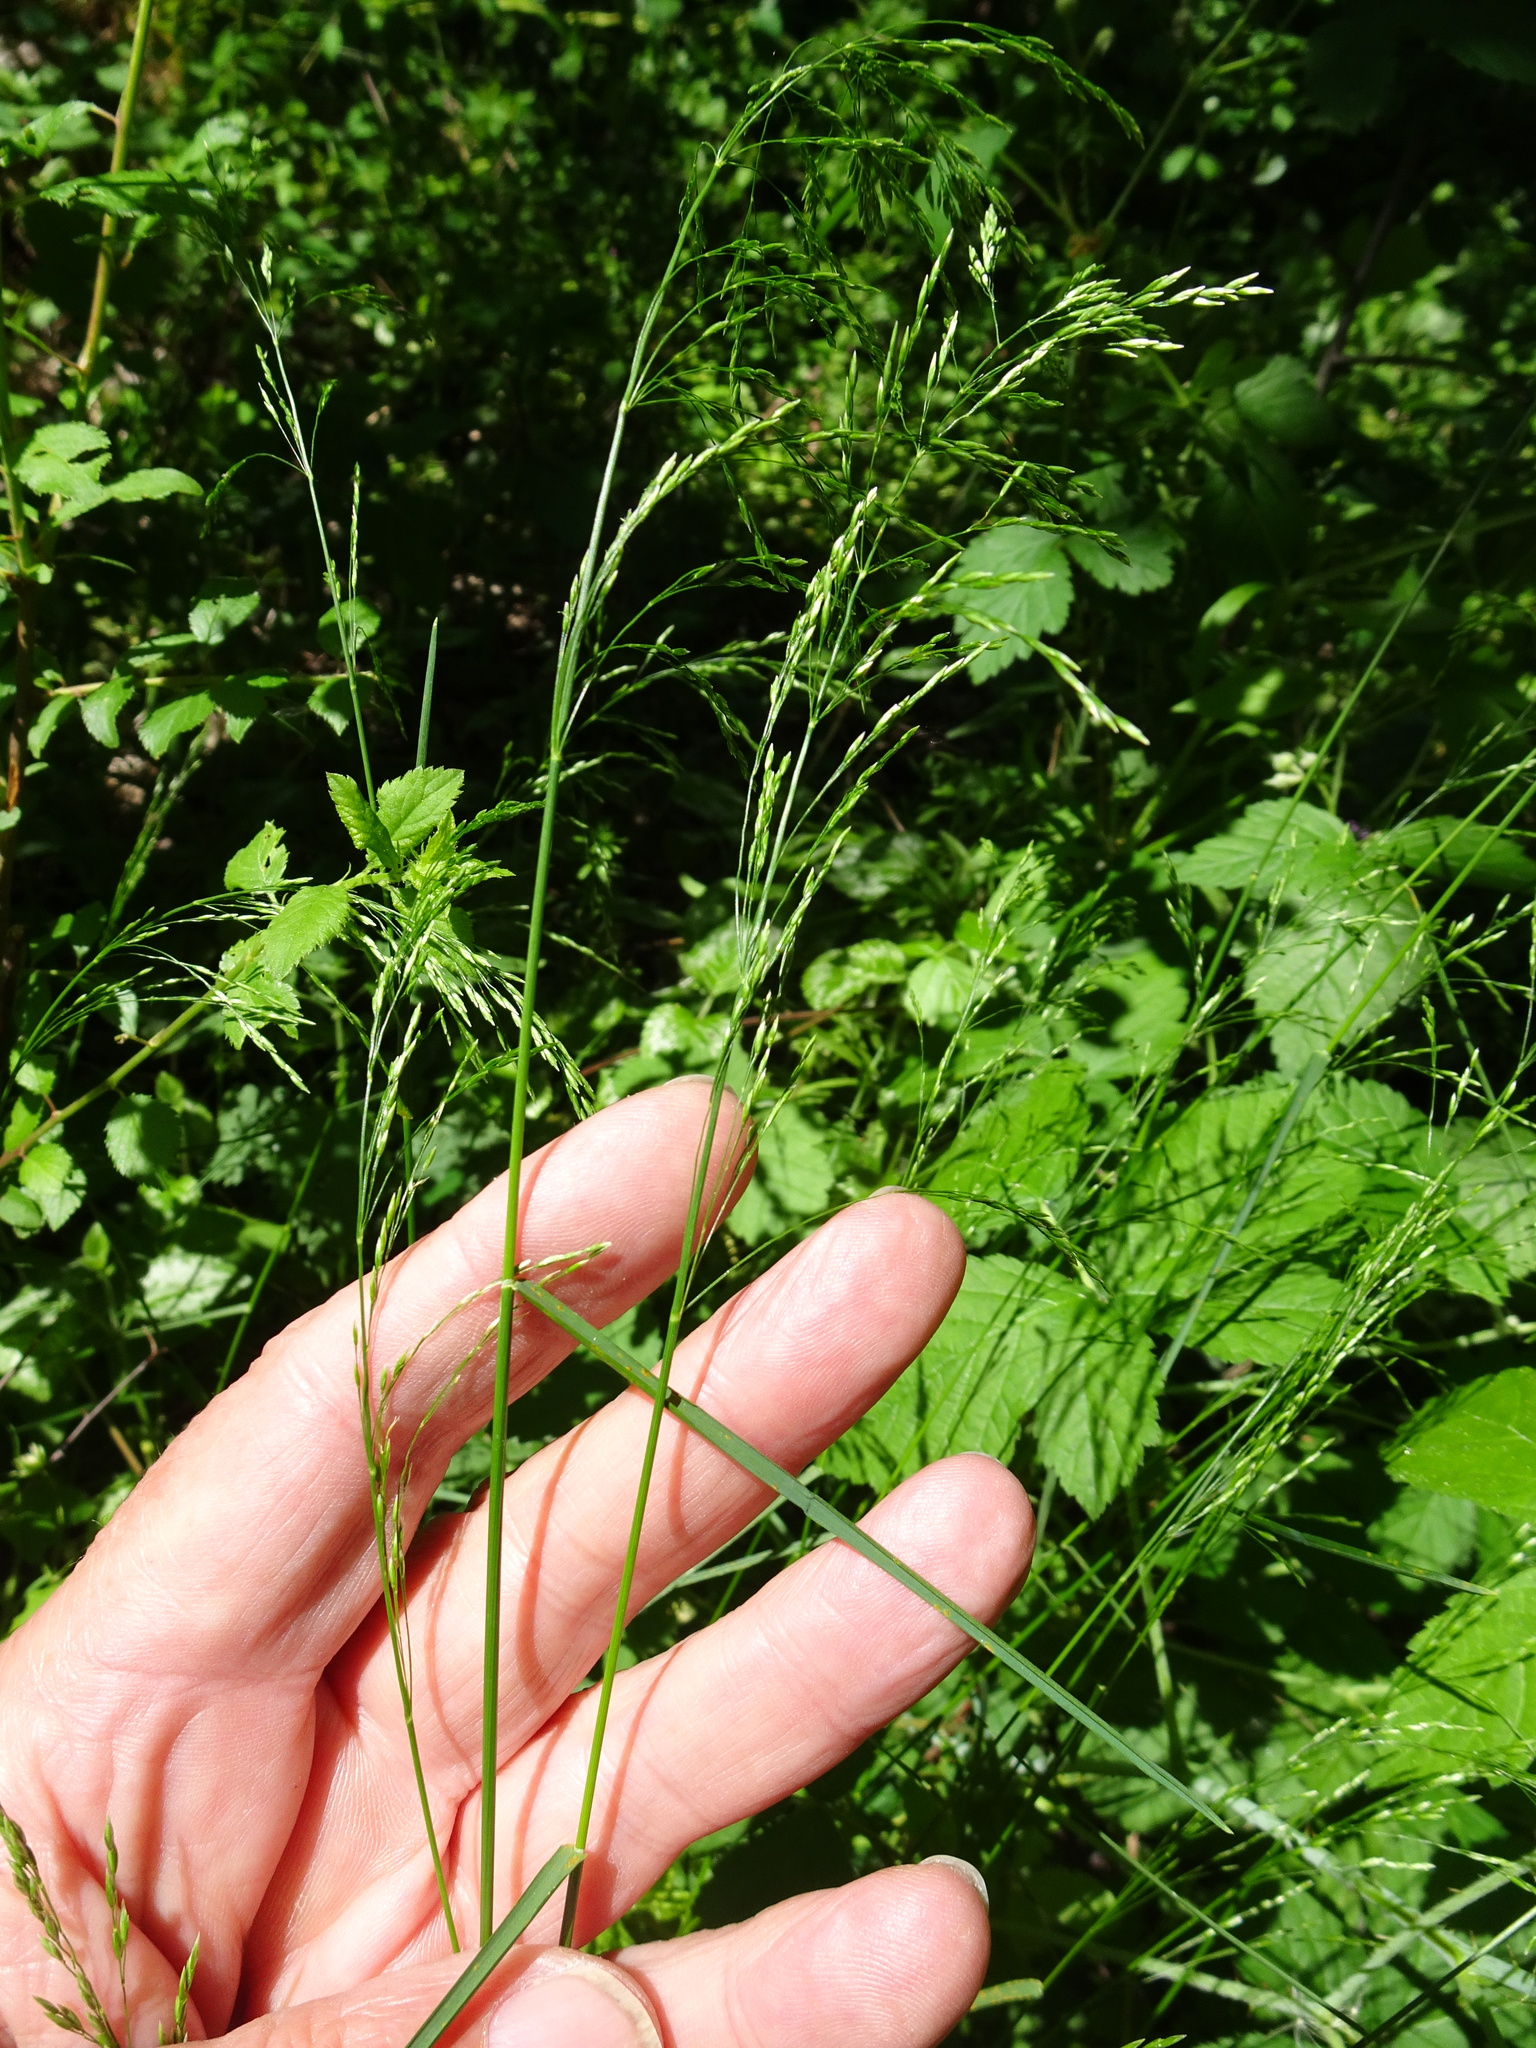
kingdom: Plantae
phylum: Tracheophyta
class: Liliopsida
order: Poales
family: Poaceae
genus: Poa
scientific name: Poa nemoralis
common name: Wood bluegrass
